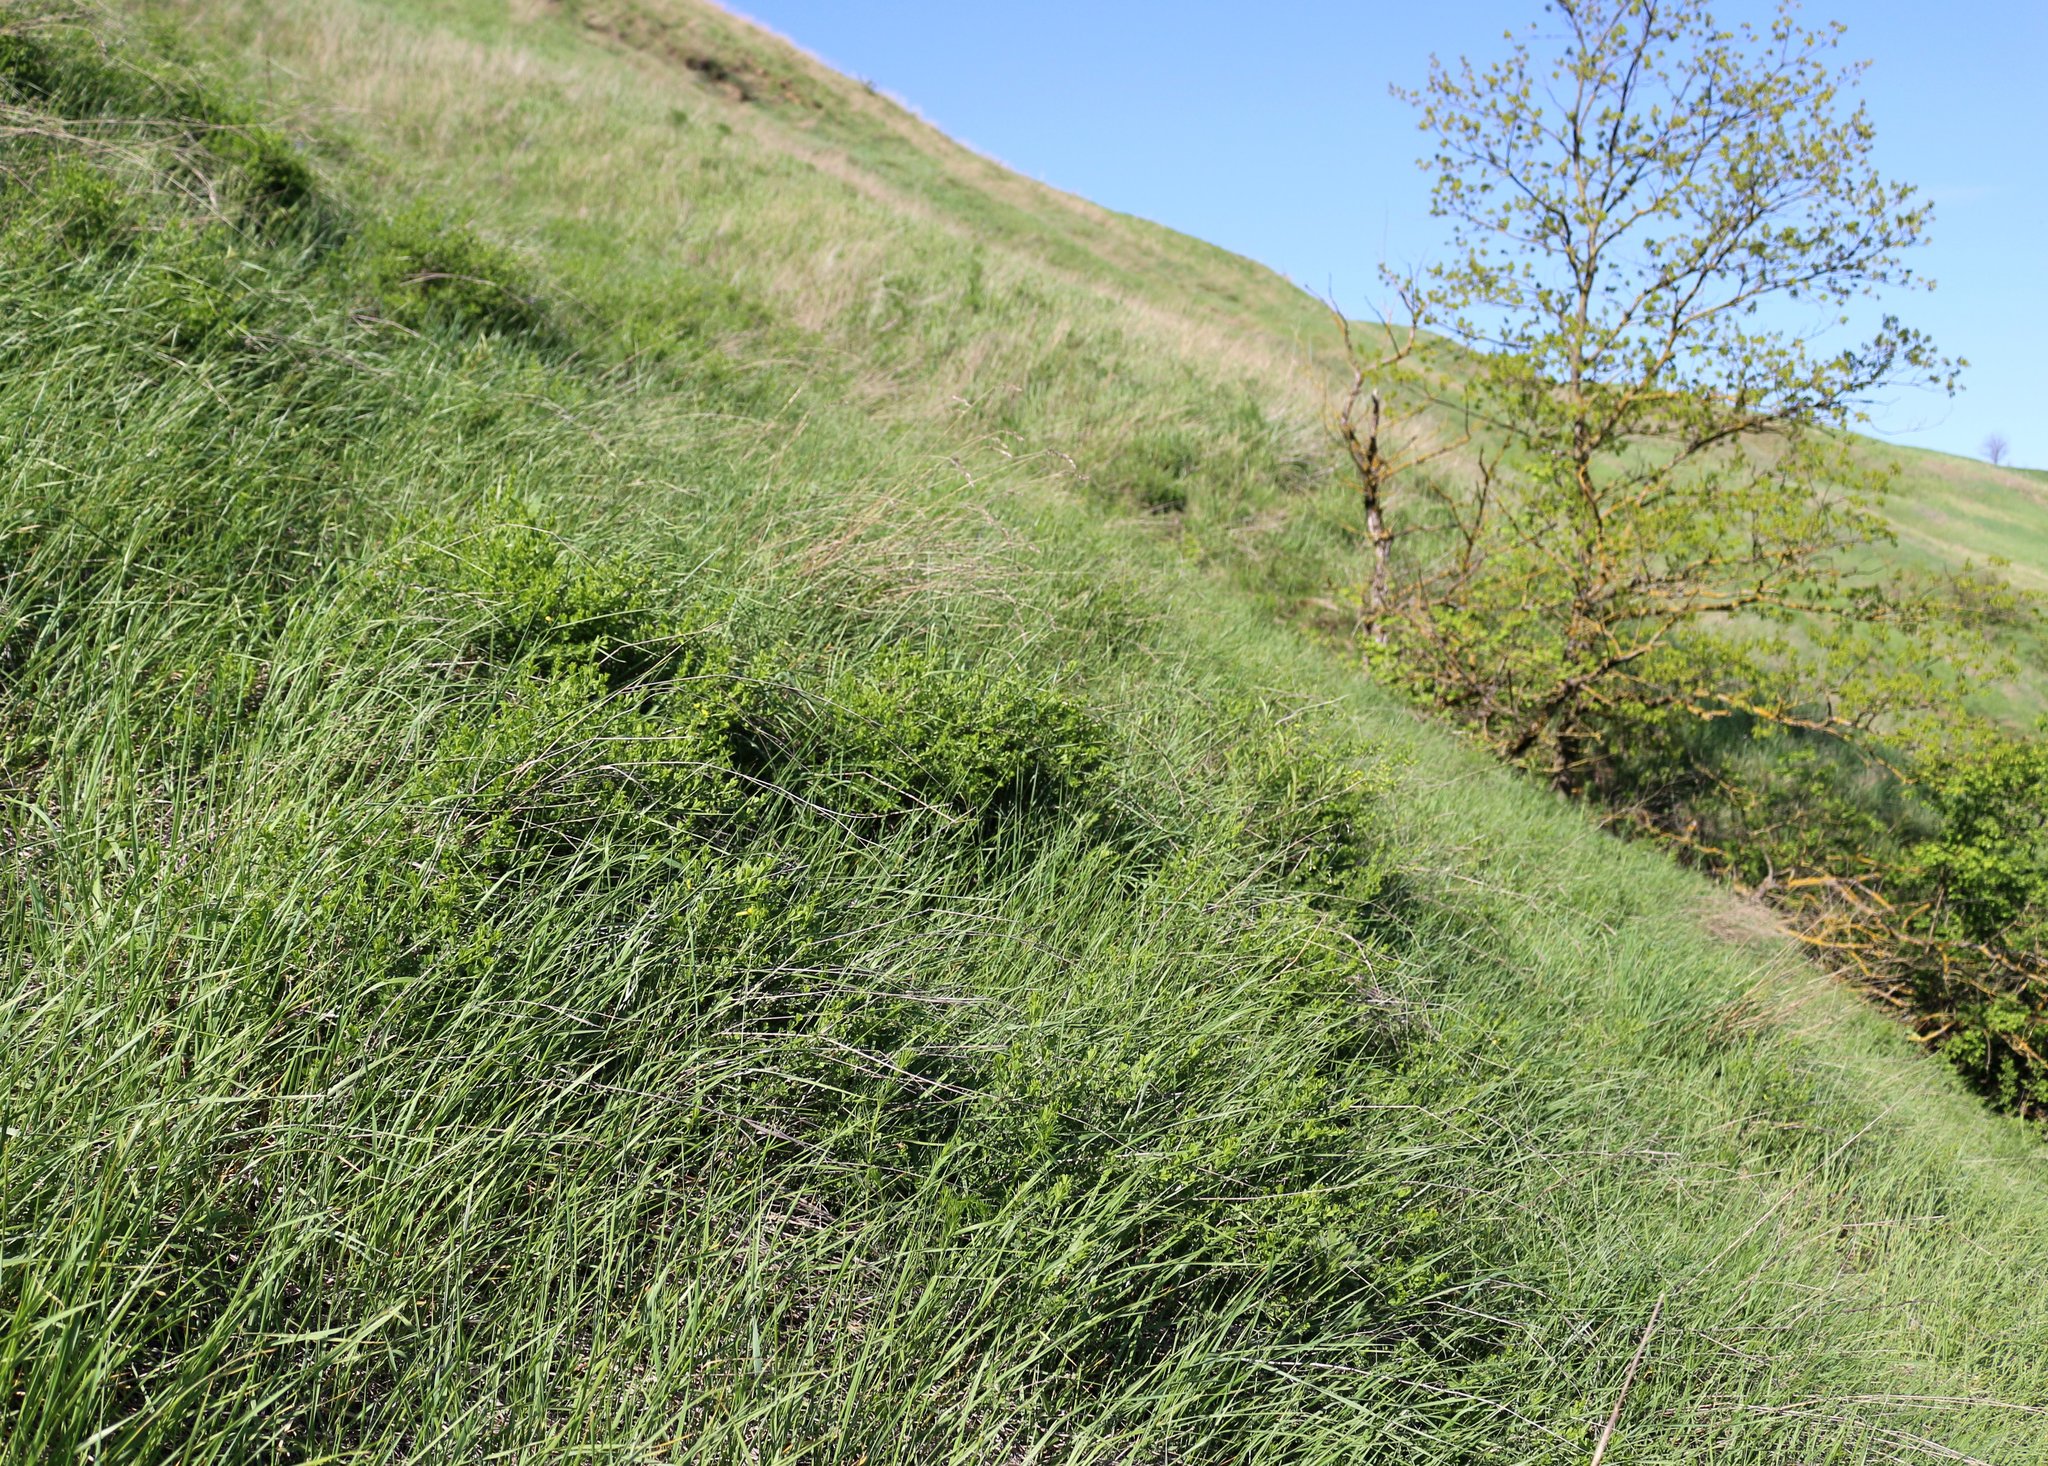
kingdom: Plantae
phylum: Tracheophyta
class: Magnoliopsida
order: Fabales
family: Fabaceae
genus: Caragana
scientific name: Caragana frutex
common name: Russian peashrub
